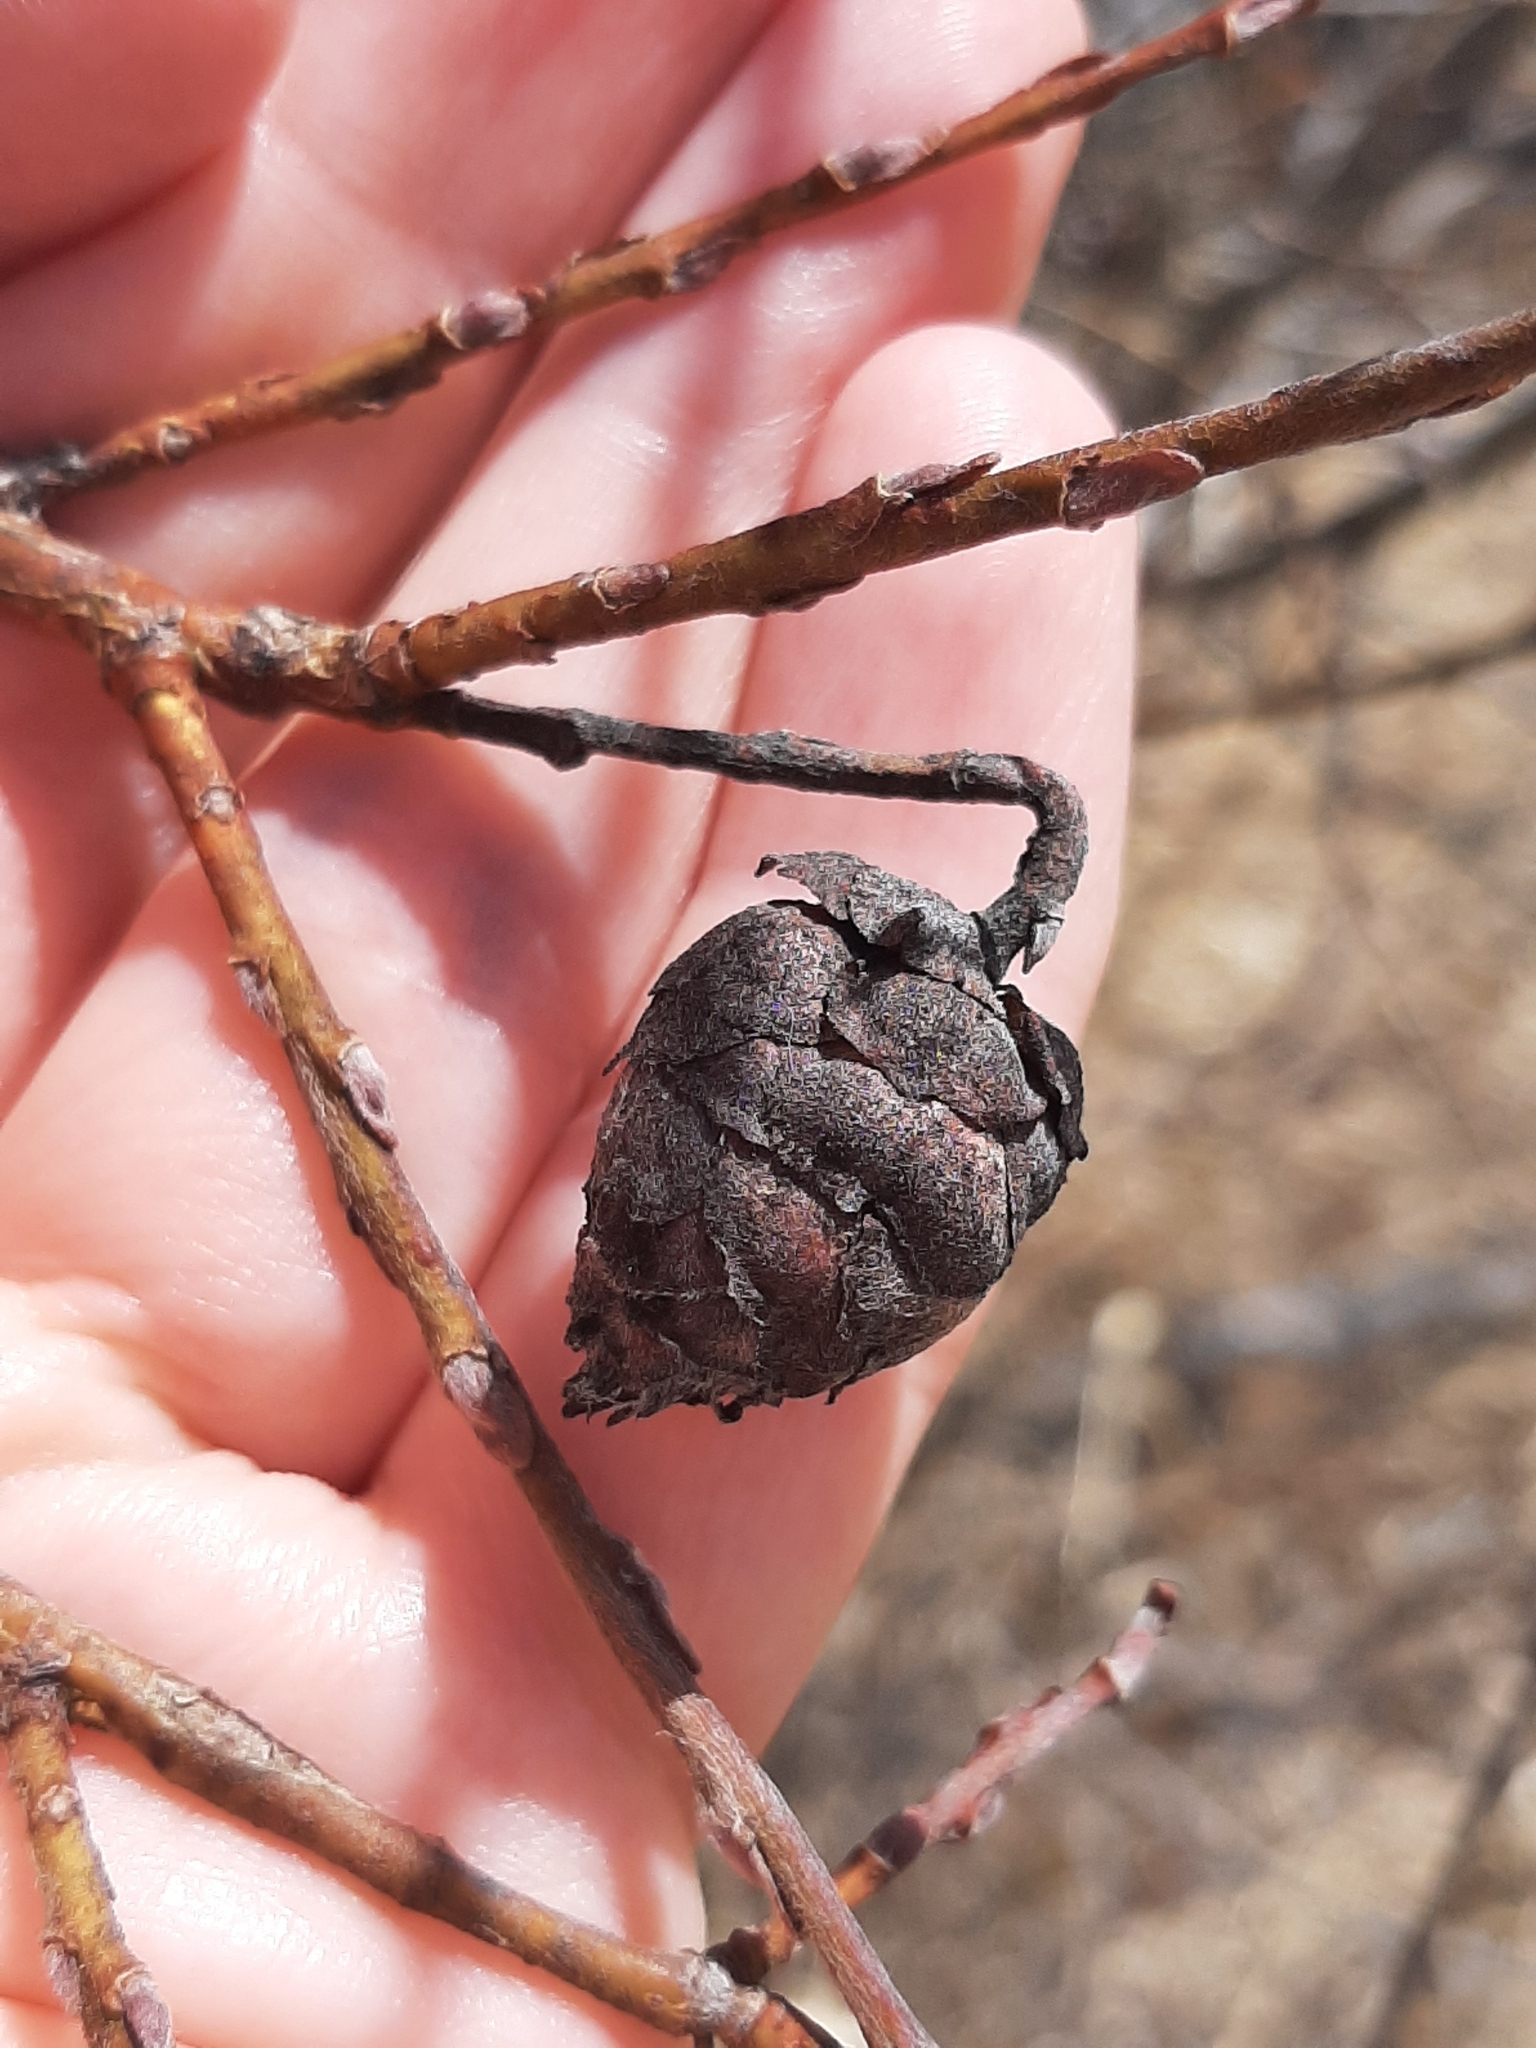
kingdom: Animalia
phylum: Arthropoda
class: Insecta
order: Diptera
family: Cecidomyiidae
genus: Rabdophaga
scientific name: Rabdophaga strobiloides
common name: Willow pinecone gall midge
